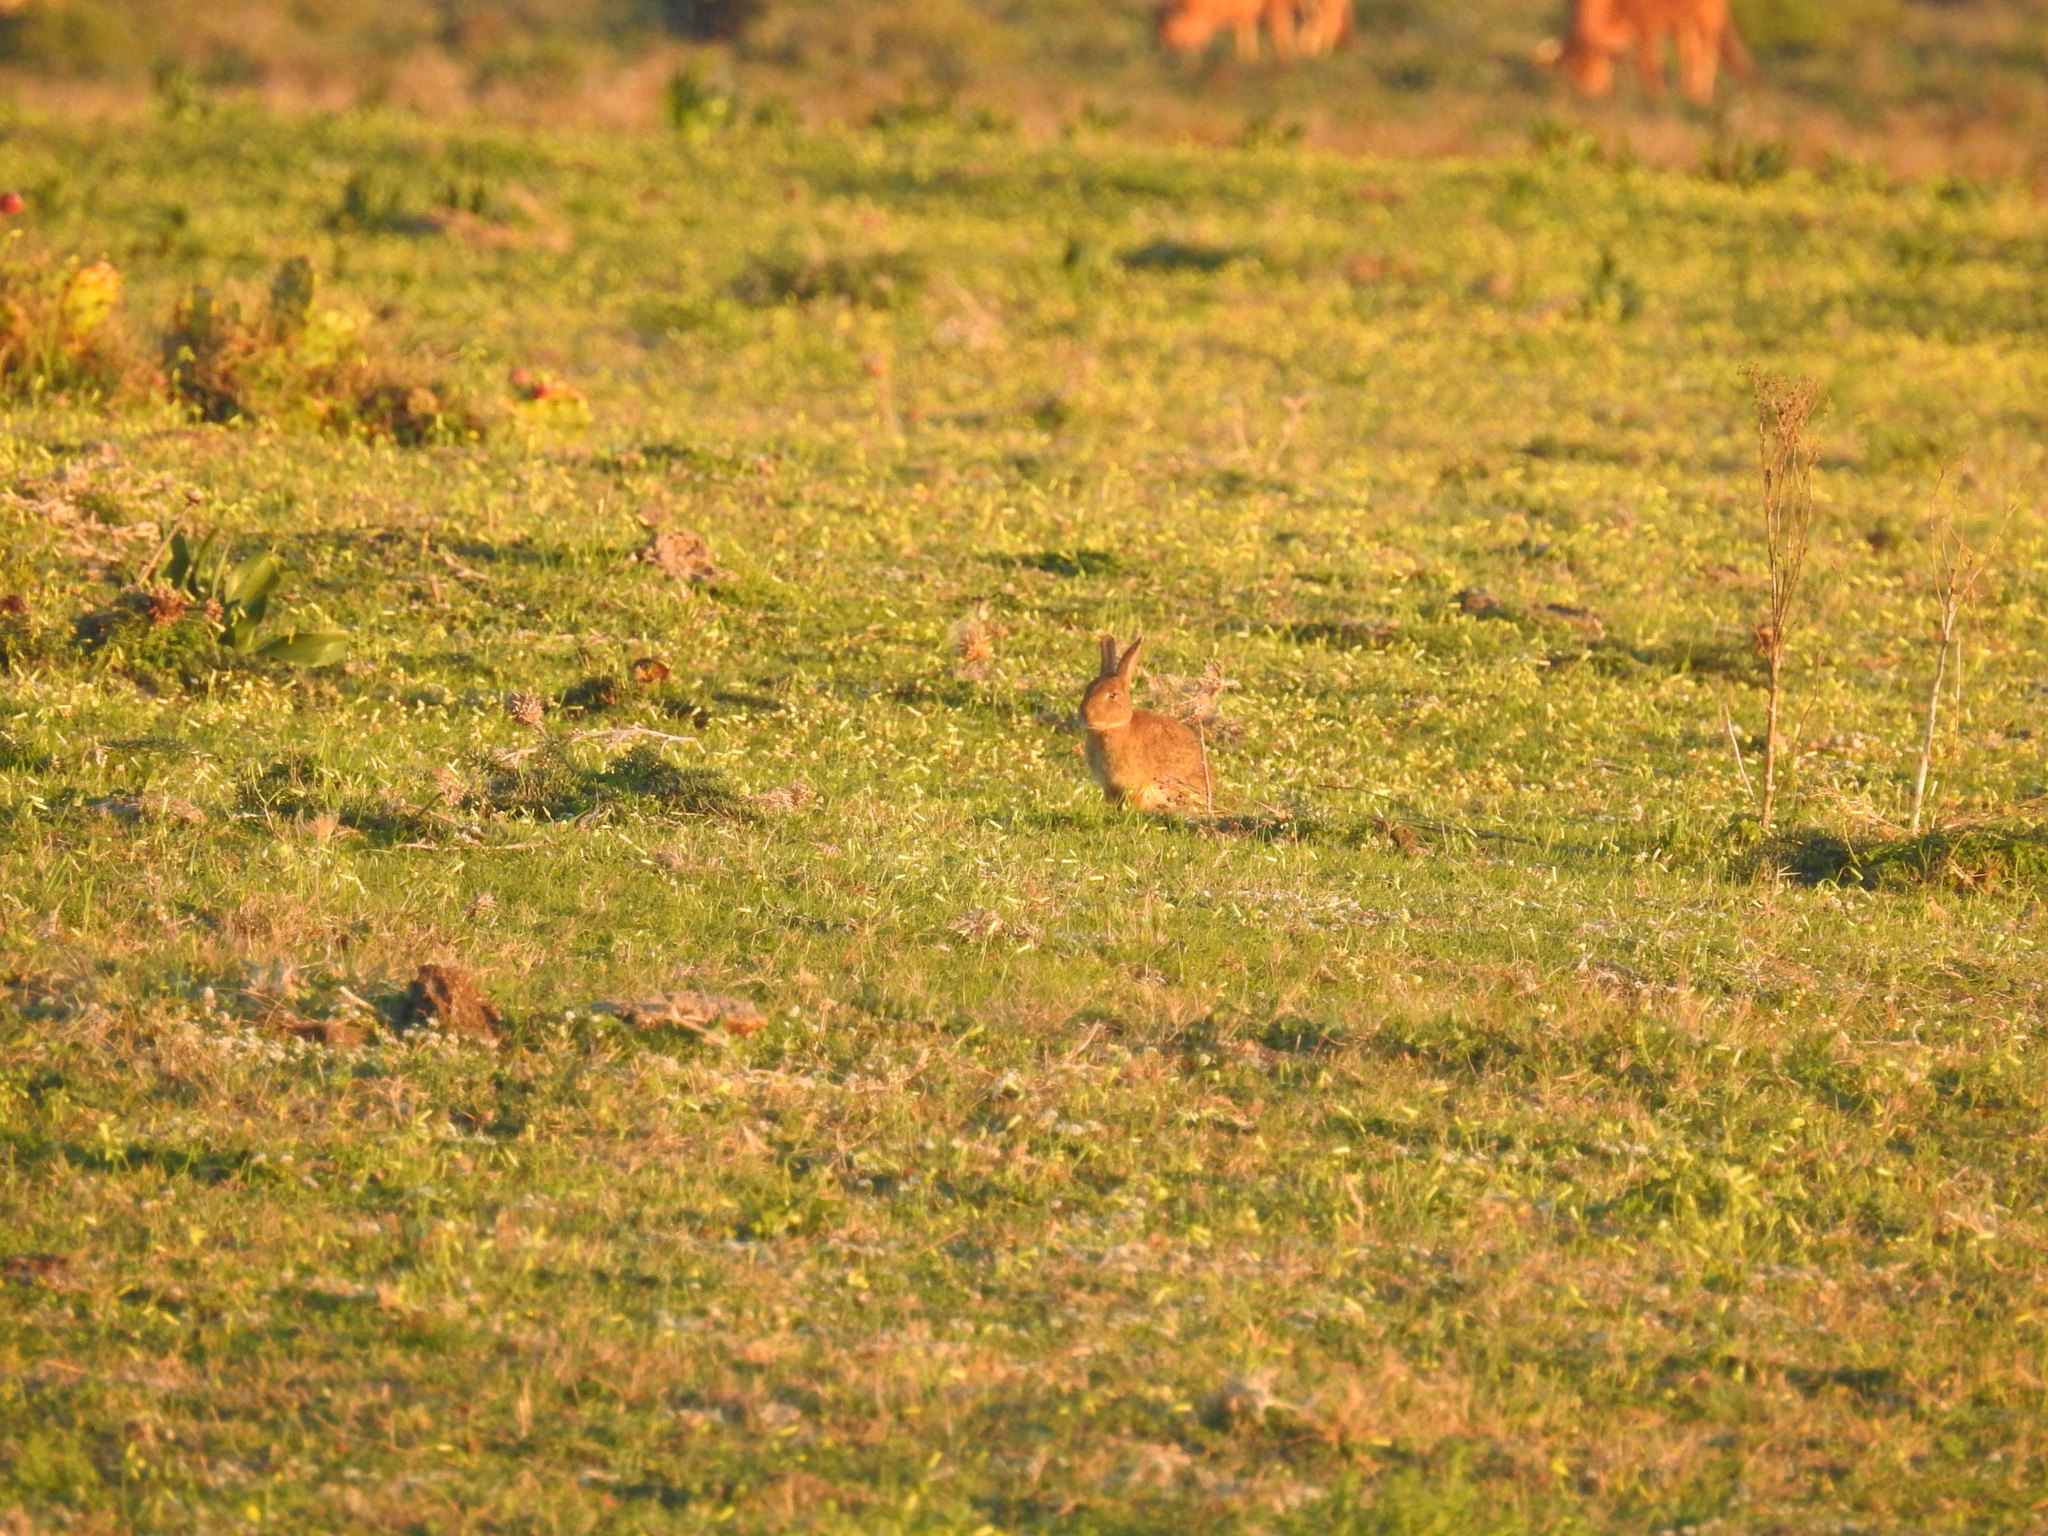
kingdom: Animalia
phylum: Chordata
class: Mammalia
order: Lagomorpha
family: Leporidae
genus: Oryctolagus
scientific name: Oryctolagus cuniculus
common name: European rabbit
